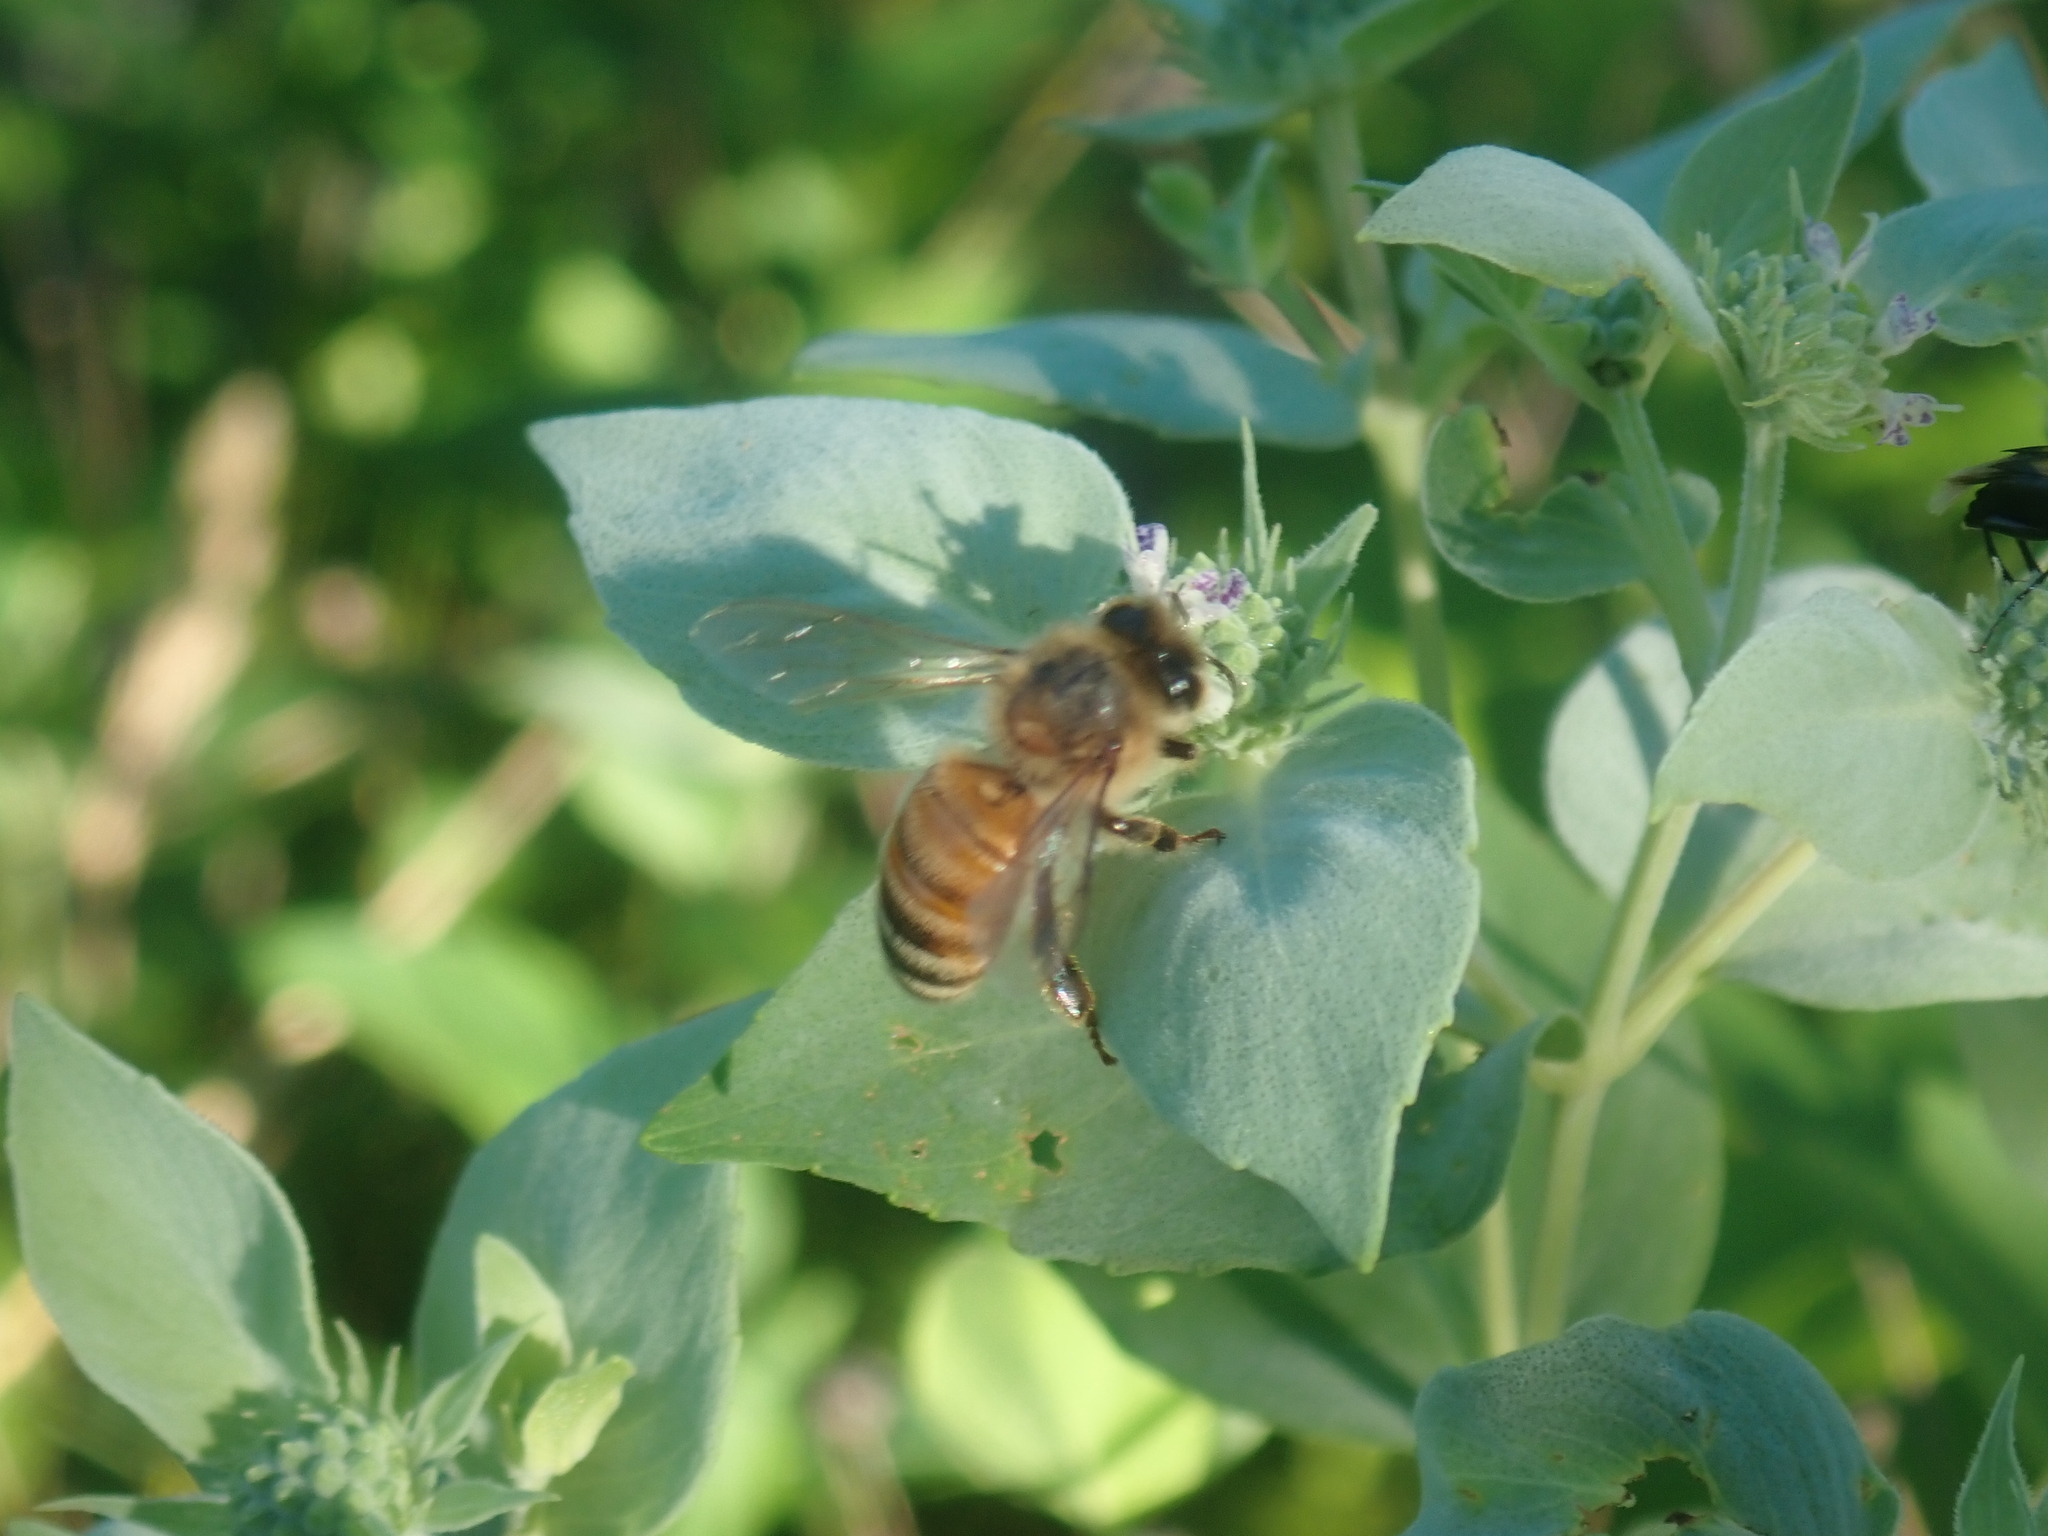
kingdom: Animalia
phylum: Arthropoda
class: Insecta
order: Hymenoptera
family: Apidae
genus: Apis
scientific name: Apis mellifera
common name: Honey bee
